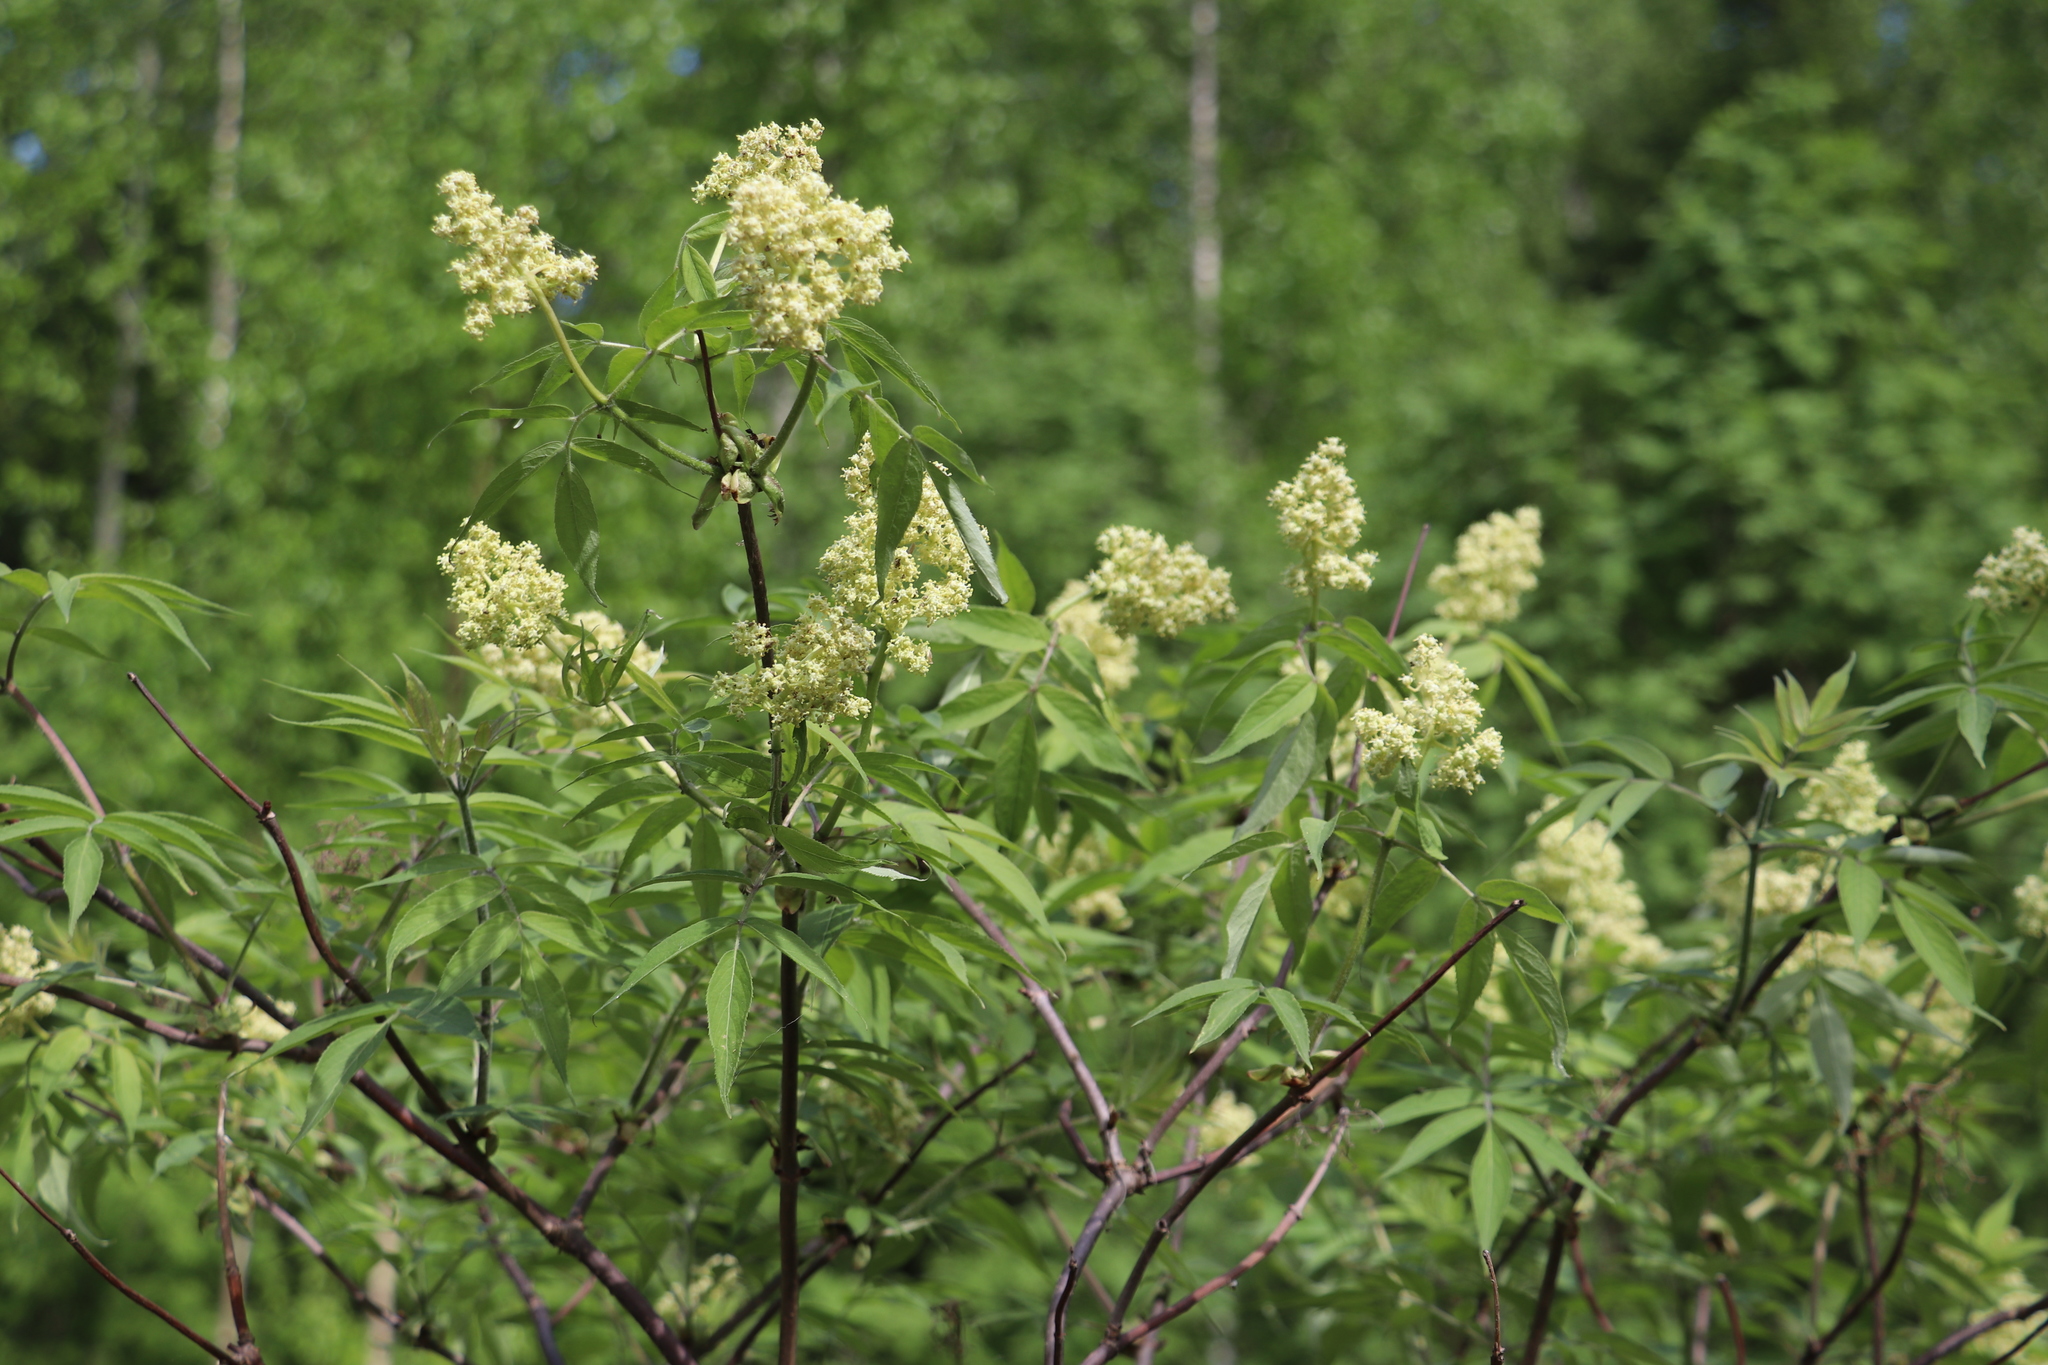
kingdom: Plantae
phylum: Tracheophyta
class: Magnoliopsida
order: Dipsacales
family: Viburnaceae
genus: Sambucus
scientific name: Sambucus sibirica
